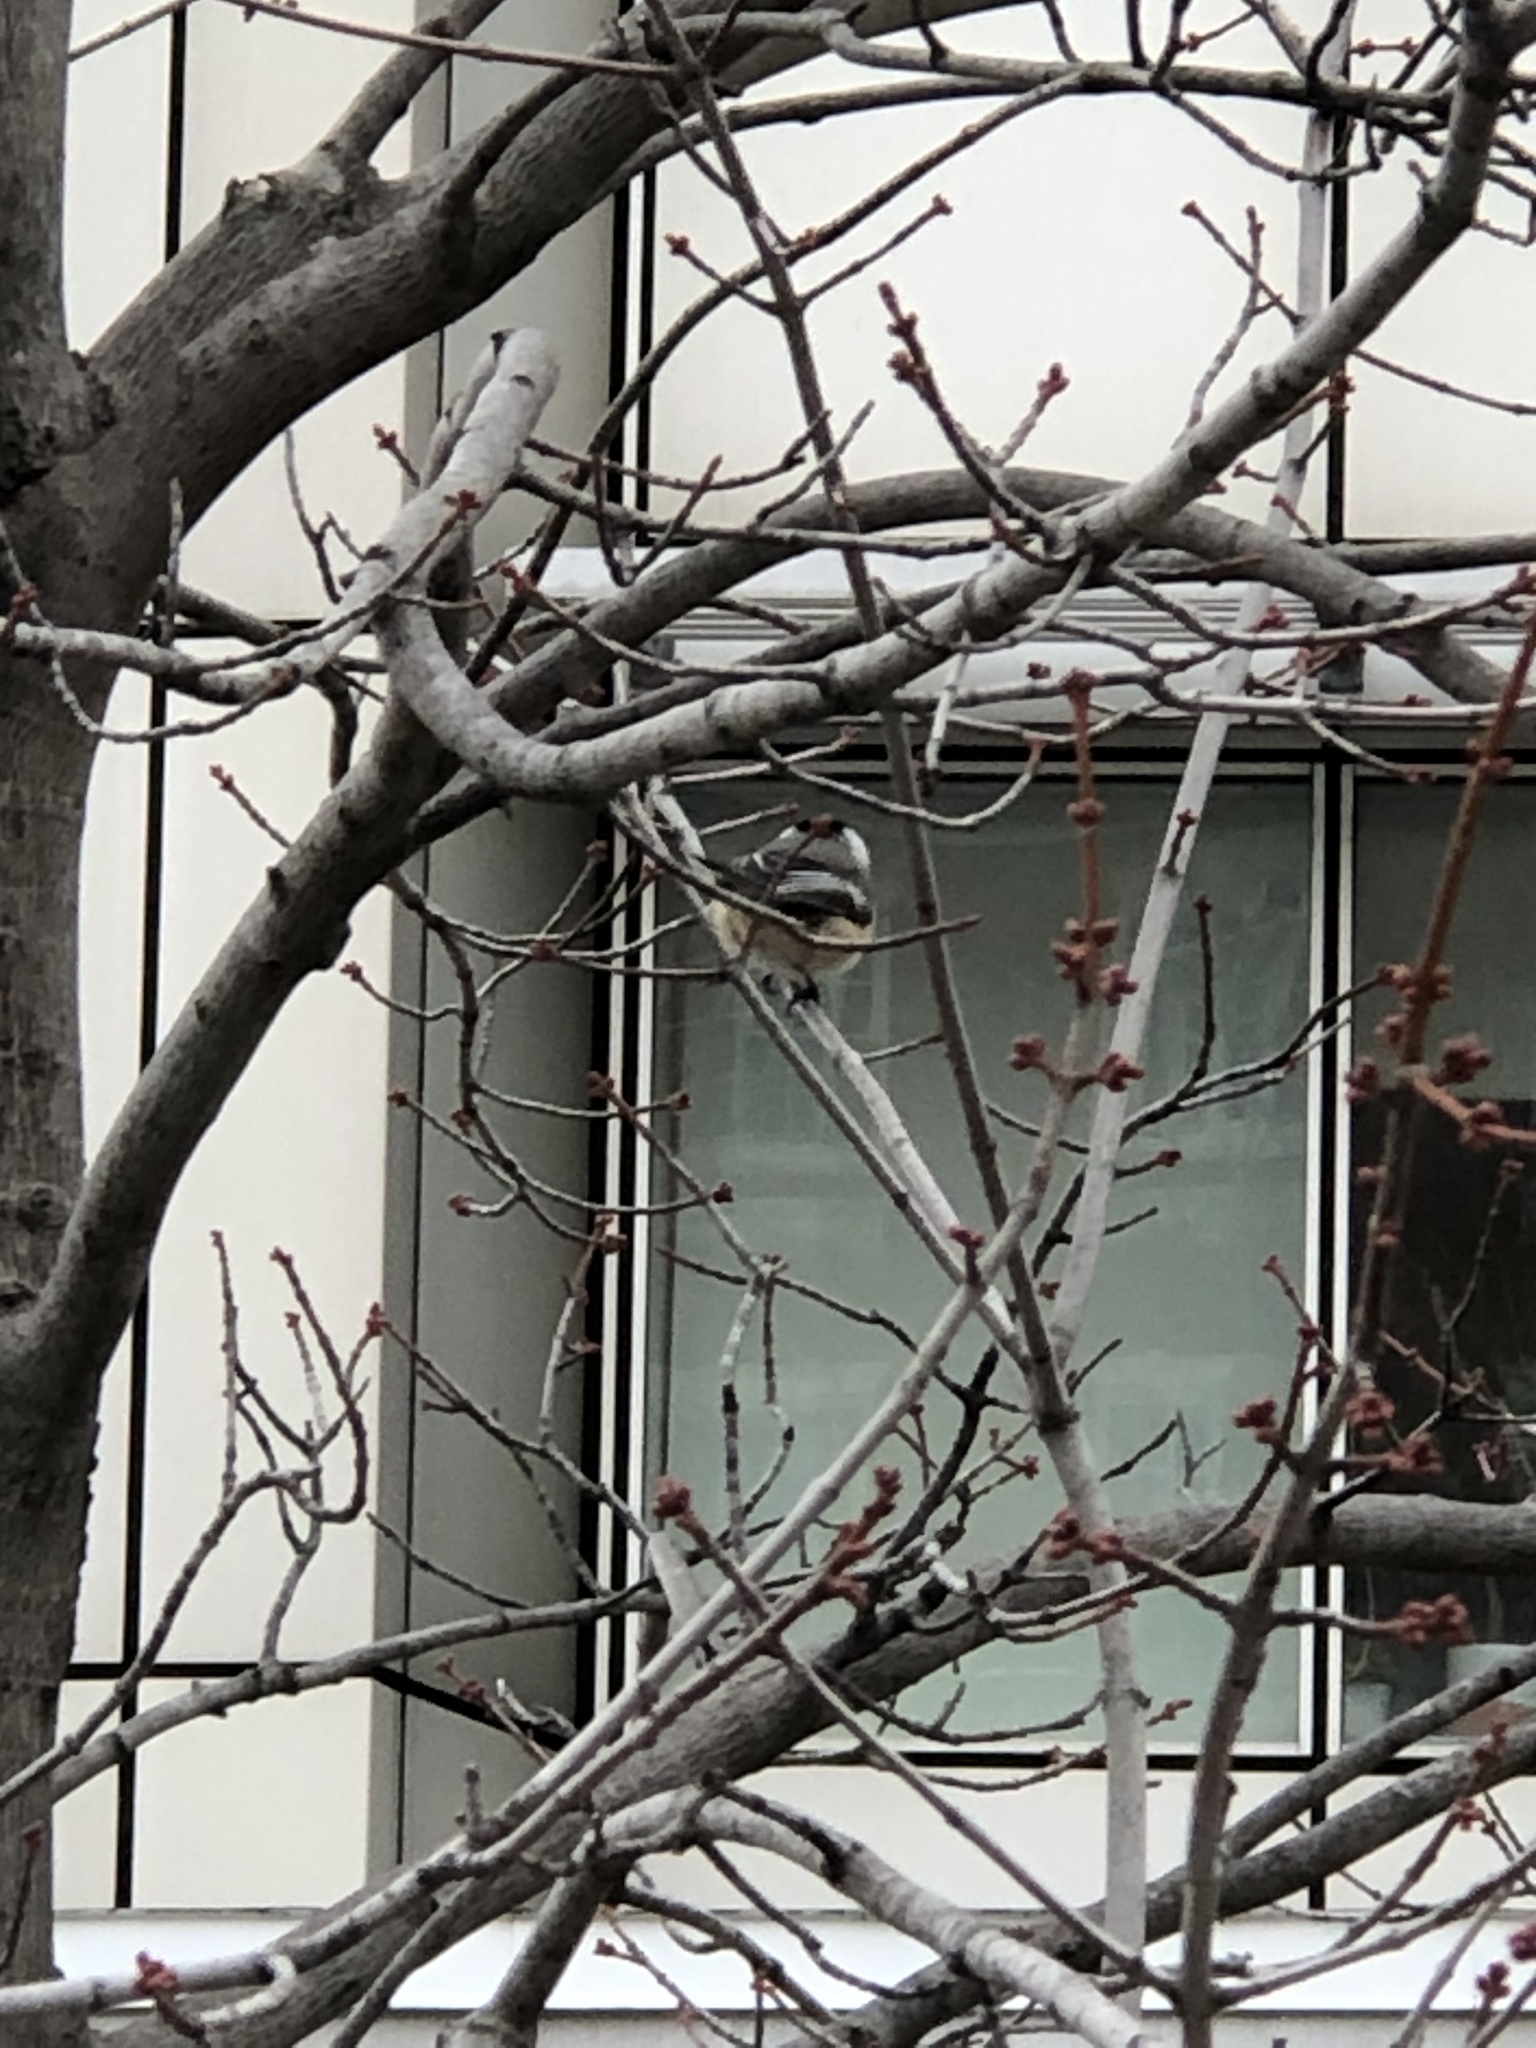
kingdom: Animalia
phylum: Chordata
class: Aves
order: Passeriformes
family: Paridae
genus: Poecile
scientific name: Poecile atricapillus
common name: Black-capped chickadee
